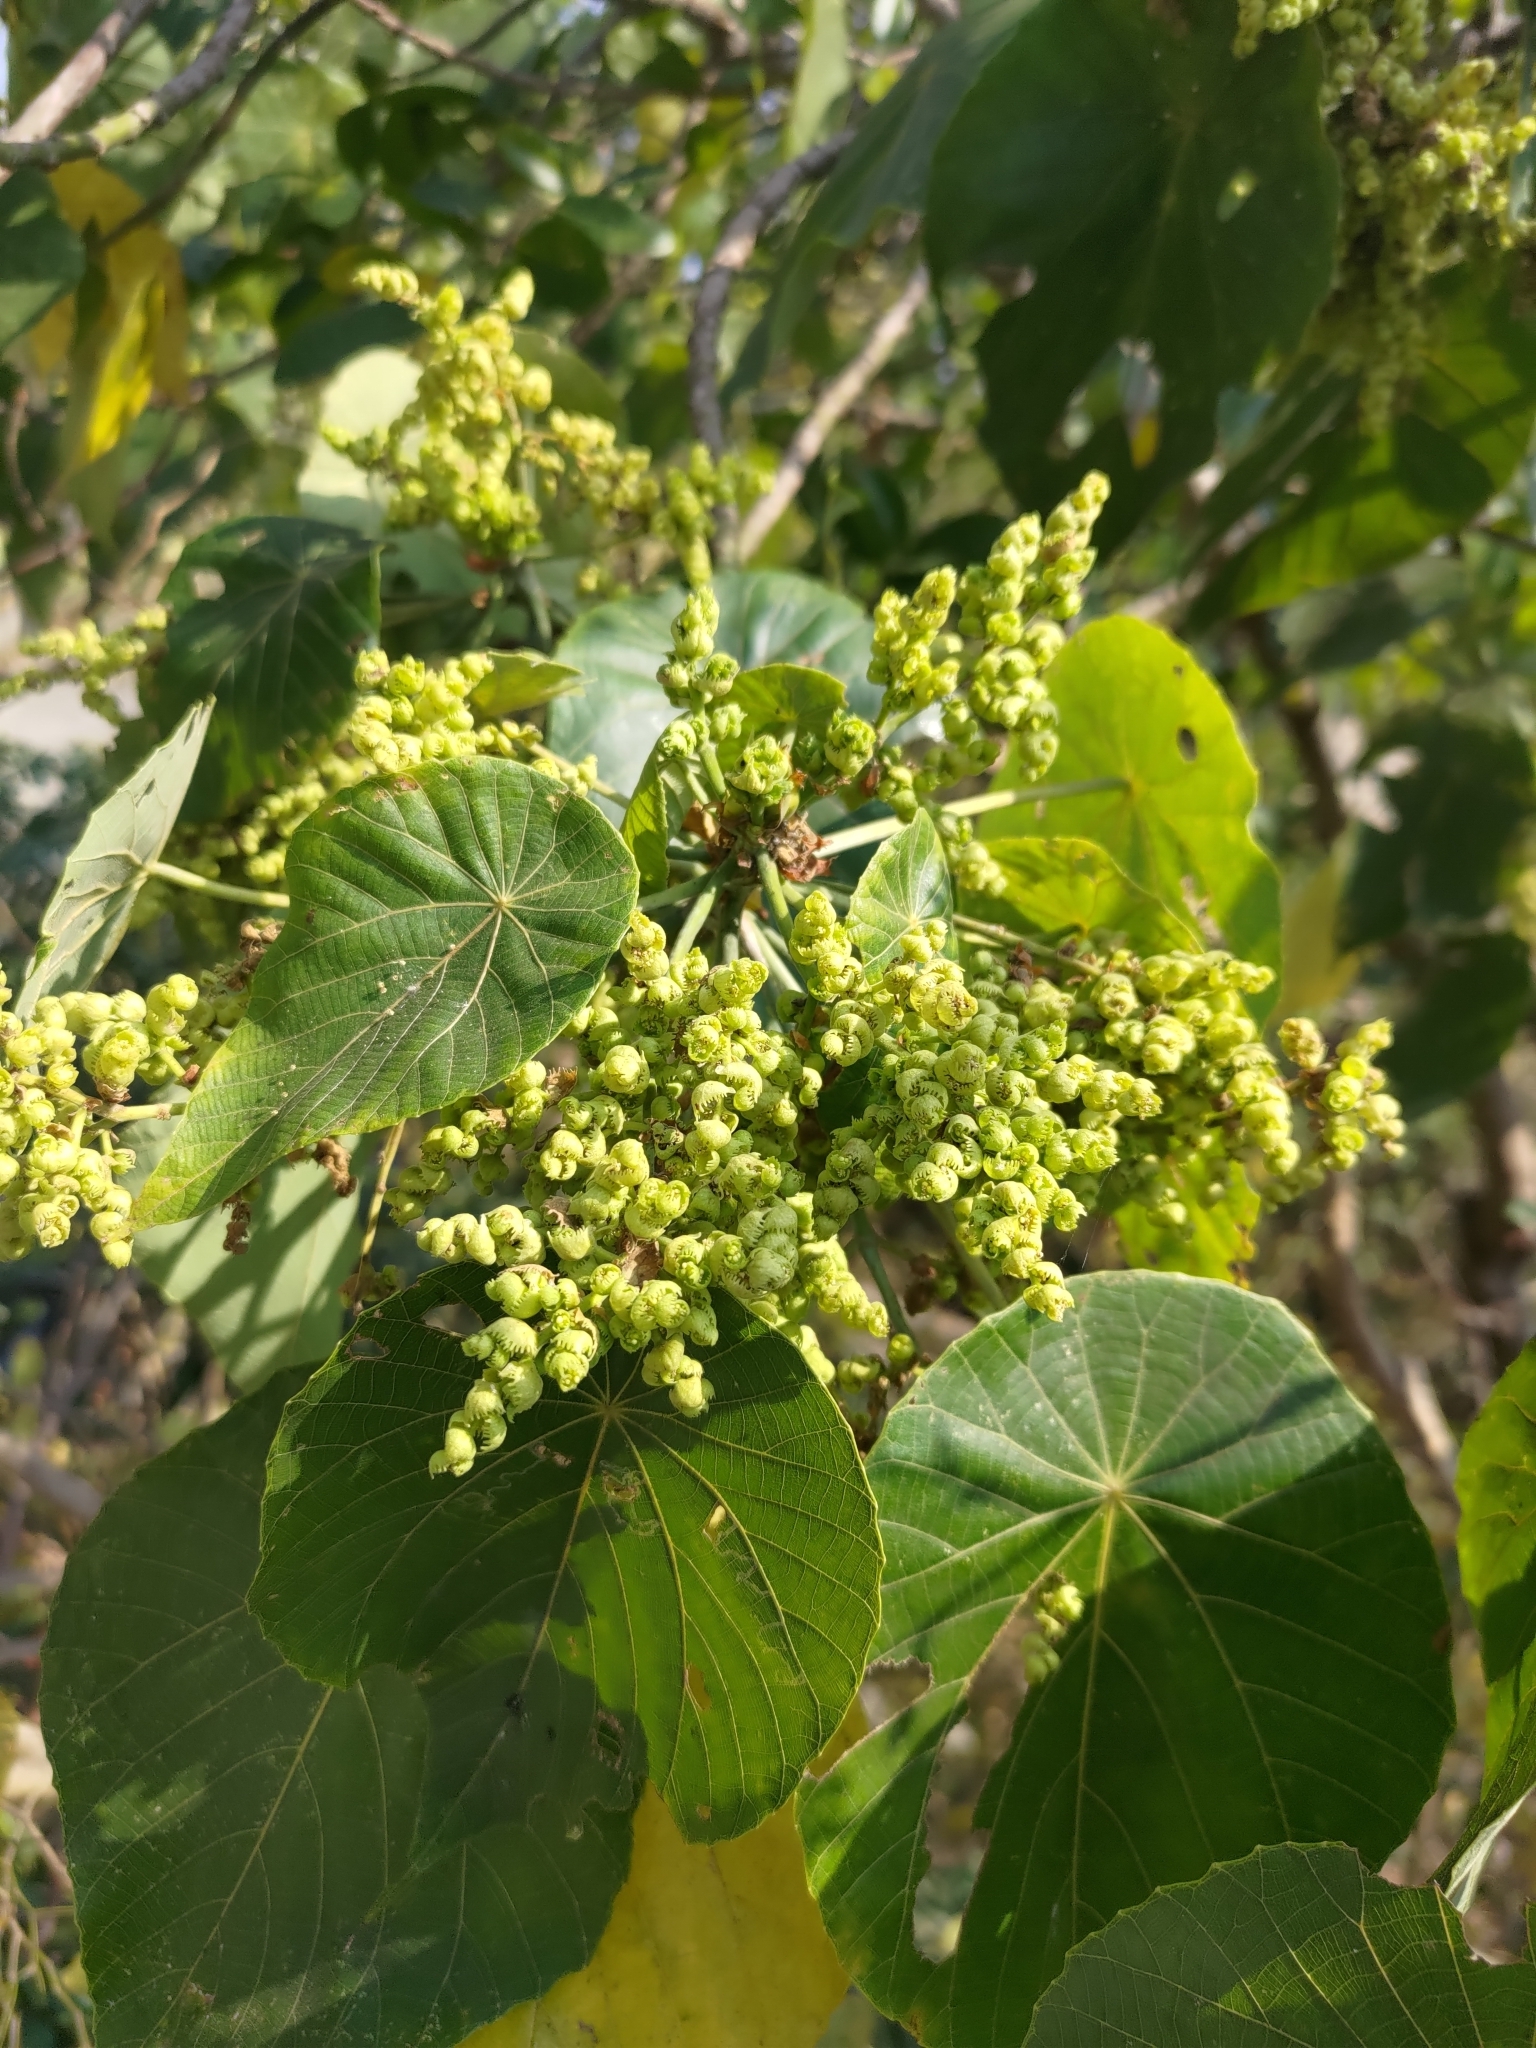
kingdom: Plantae
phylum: Tracheophyta
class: Magnoliopsida
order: Malpighiales
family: Euphorbiaceae
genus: Macaranga
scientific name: Macaranga tanarius
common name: Parasol leaf tree
